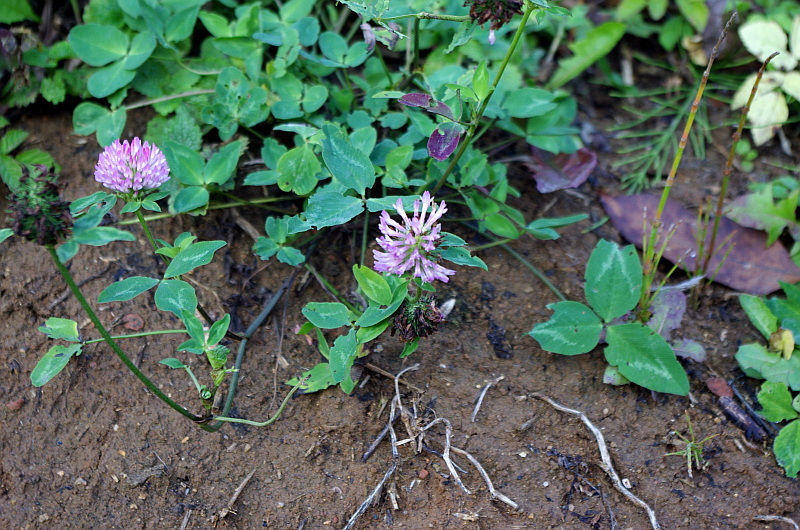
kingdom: Plantae
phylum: Tracheophyta
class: Magnoliopsida
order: Fabales
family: Fabaceae
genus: Trifolium
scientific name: Trifolium pratense
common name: Red clover
